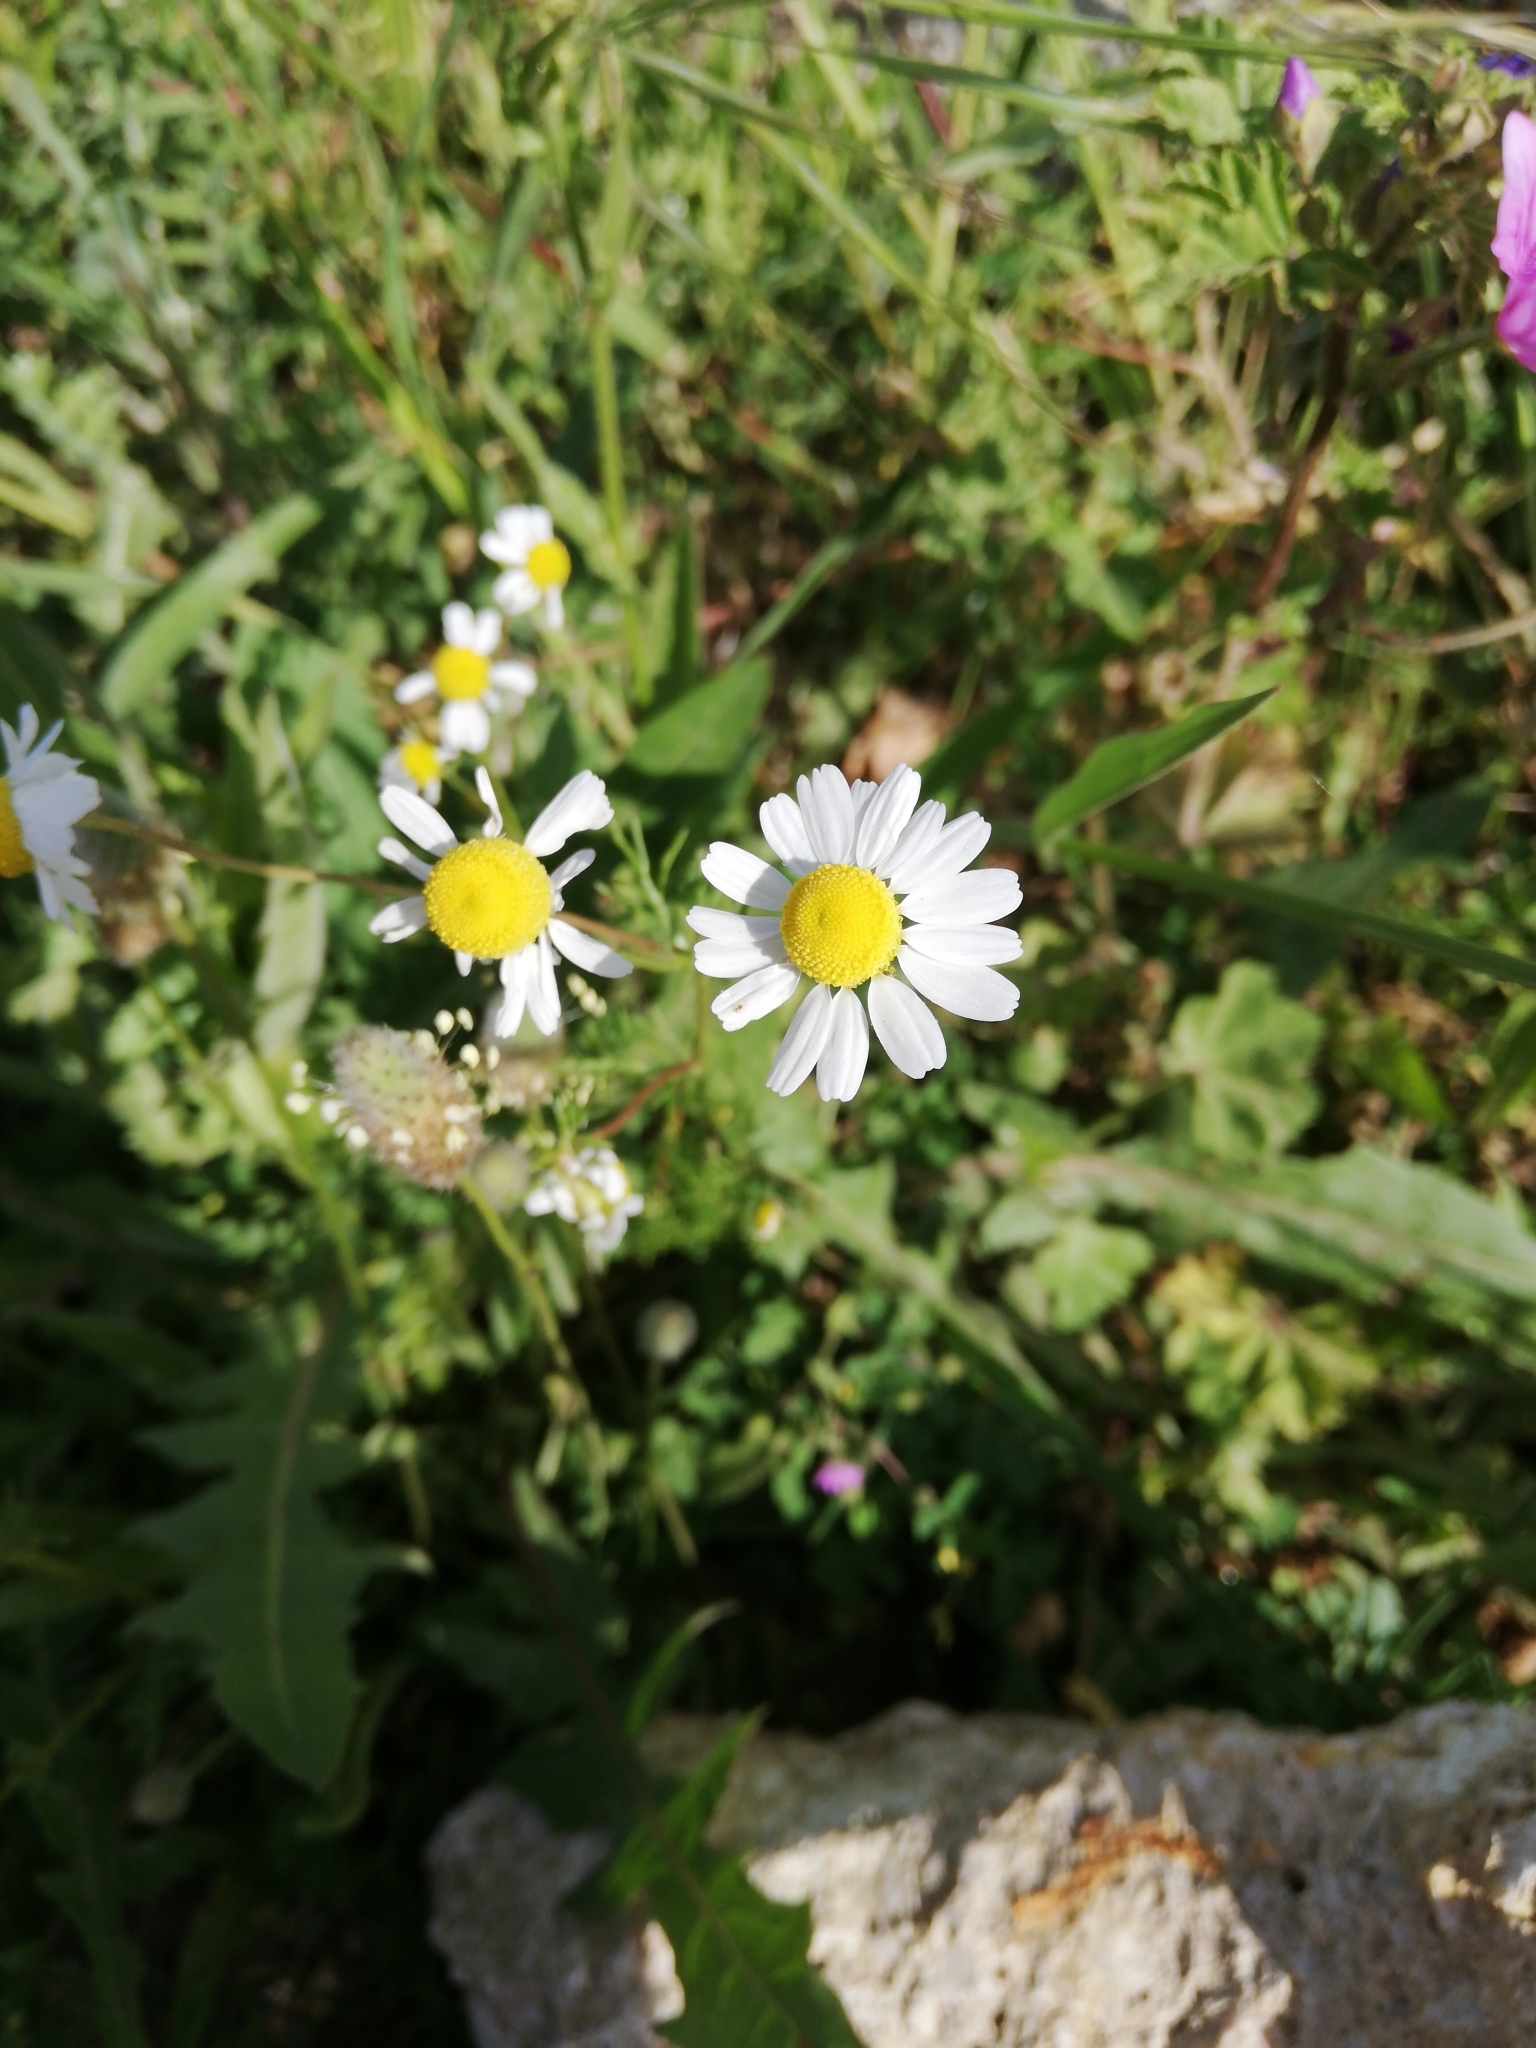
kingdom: Plantae
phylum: Tracheophyta
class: Magnoliopsida
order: Asterales
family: Asteraceae
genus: Bellis
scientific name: Bellis perennis
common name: Lawndaisy
